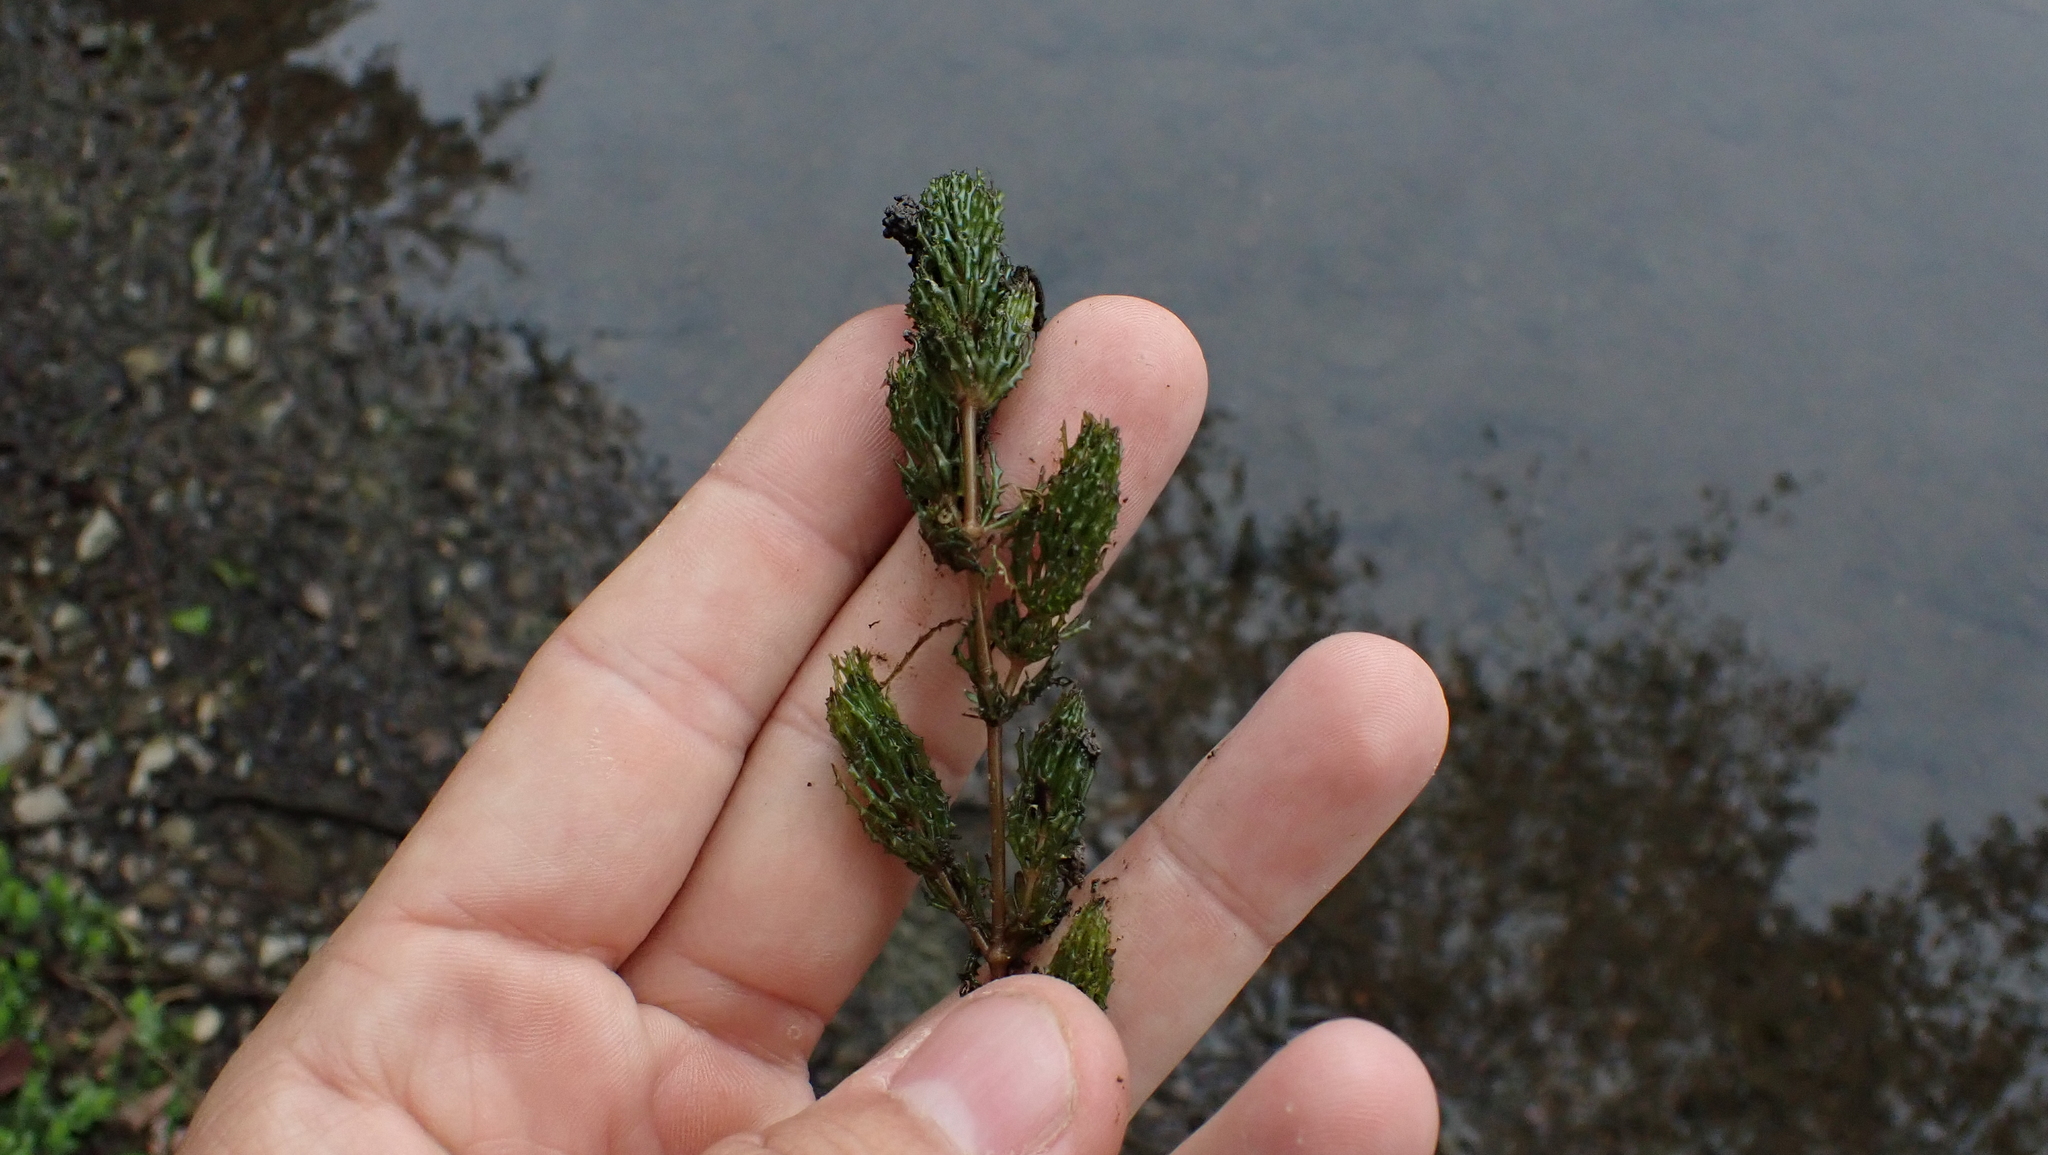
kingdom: Plantae
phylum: Tracheophyta
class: Magnoliopsida
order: Ceratophyllales
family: Ceratophyllaceae
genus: Ceratophyllum
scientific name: Ceratophyllum demersum
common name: Rigid hornwort
